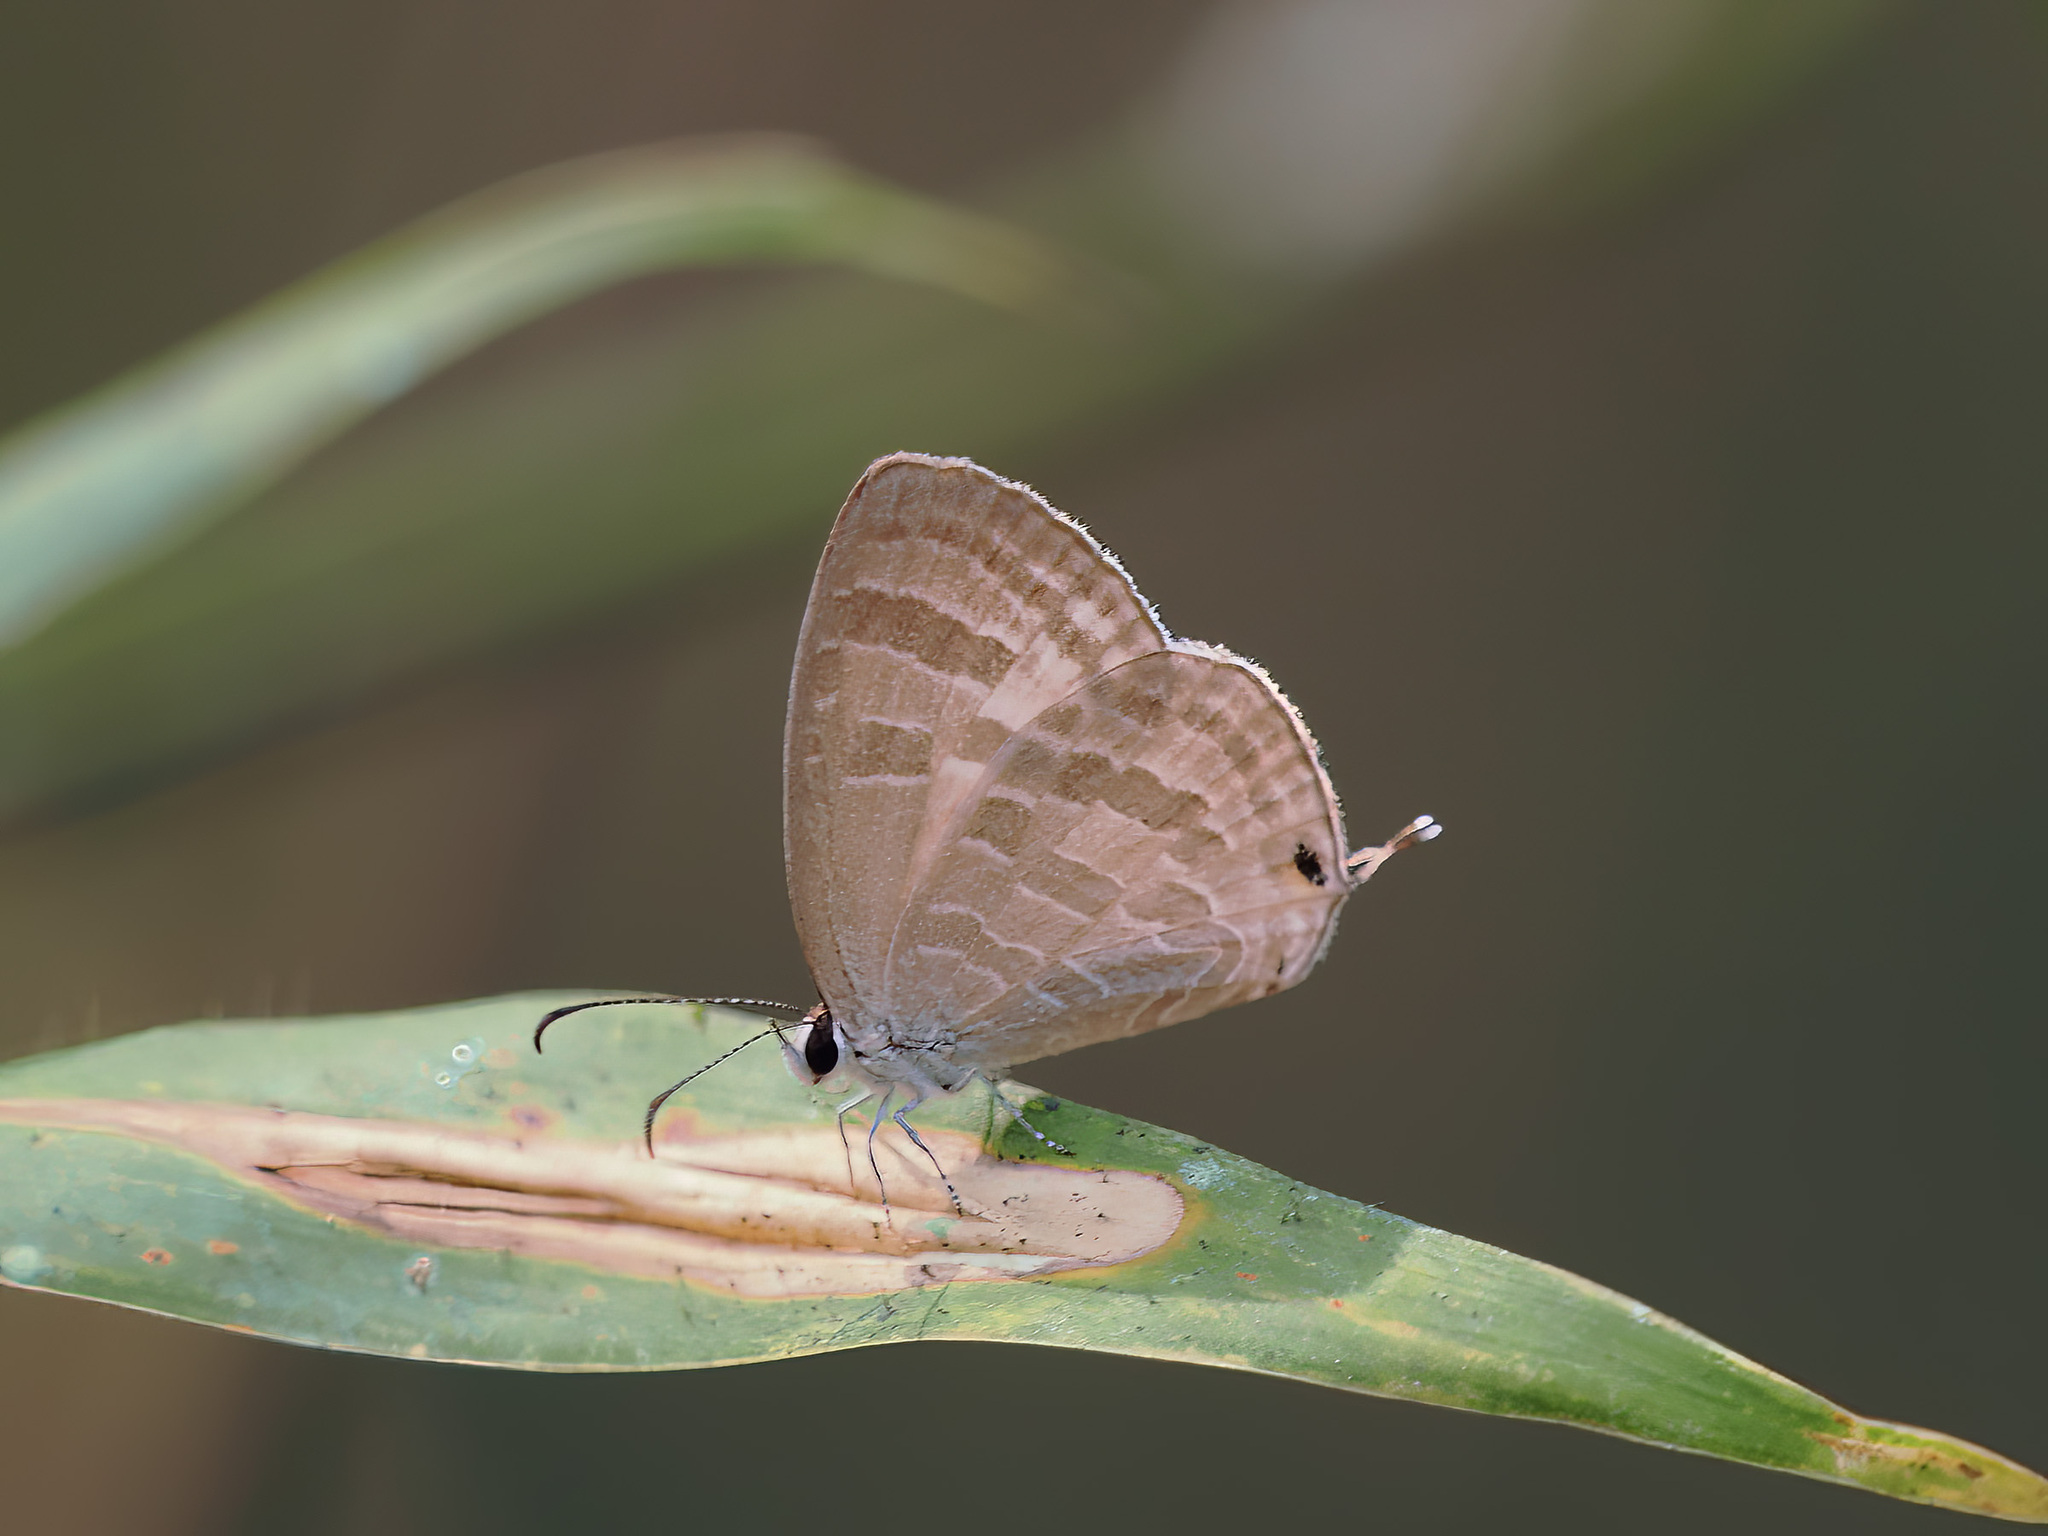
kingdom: Animalia
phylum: Arthropoda
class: Insecta
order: Lepidoptera
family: Lycaenidae
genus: Jamides
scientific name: Jamides celeno
